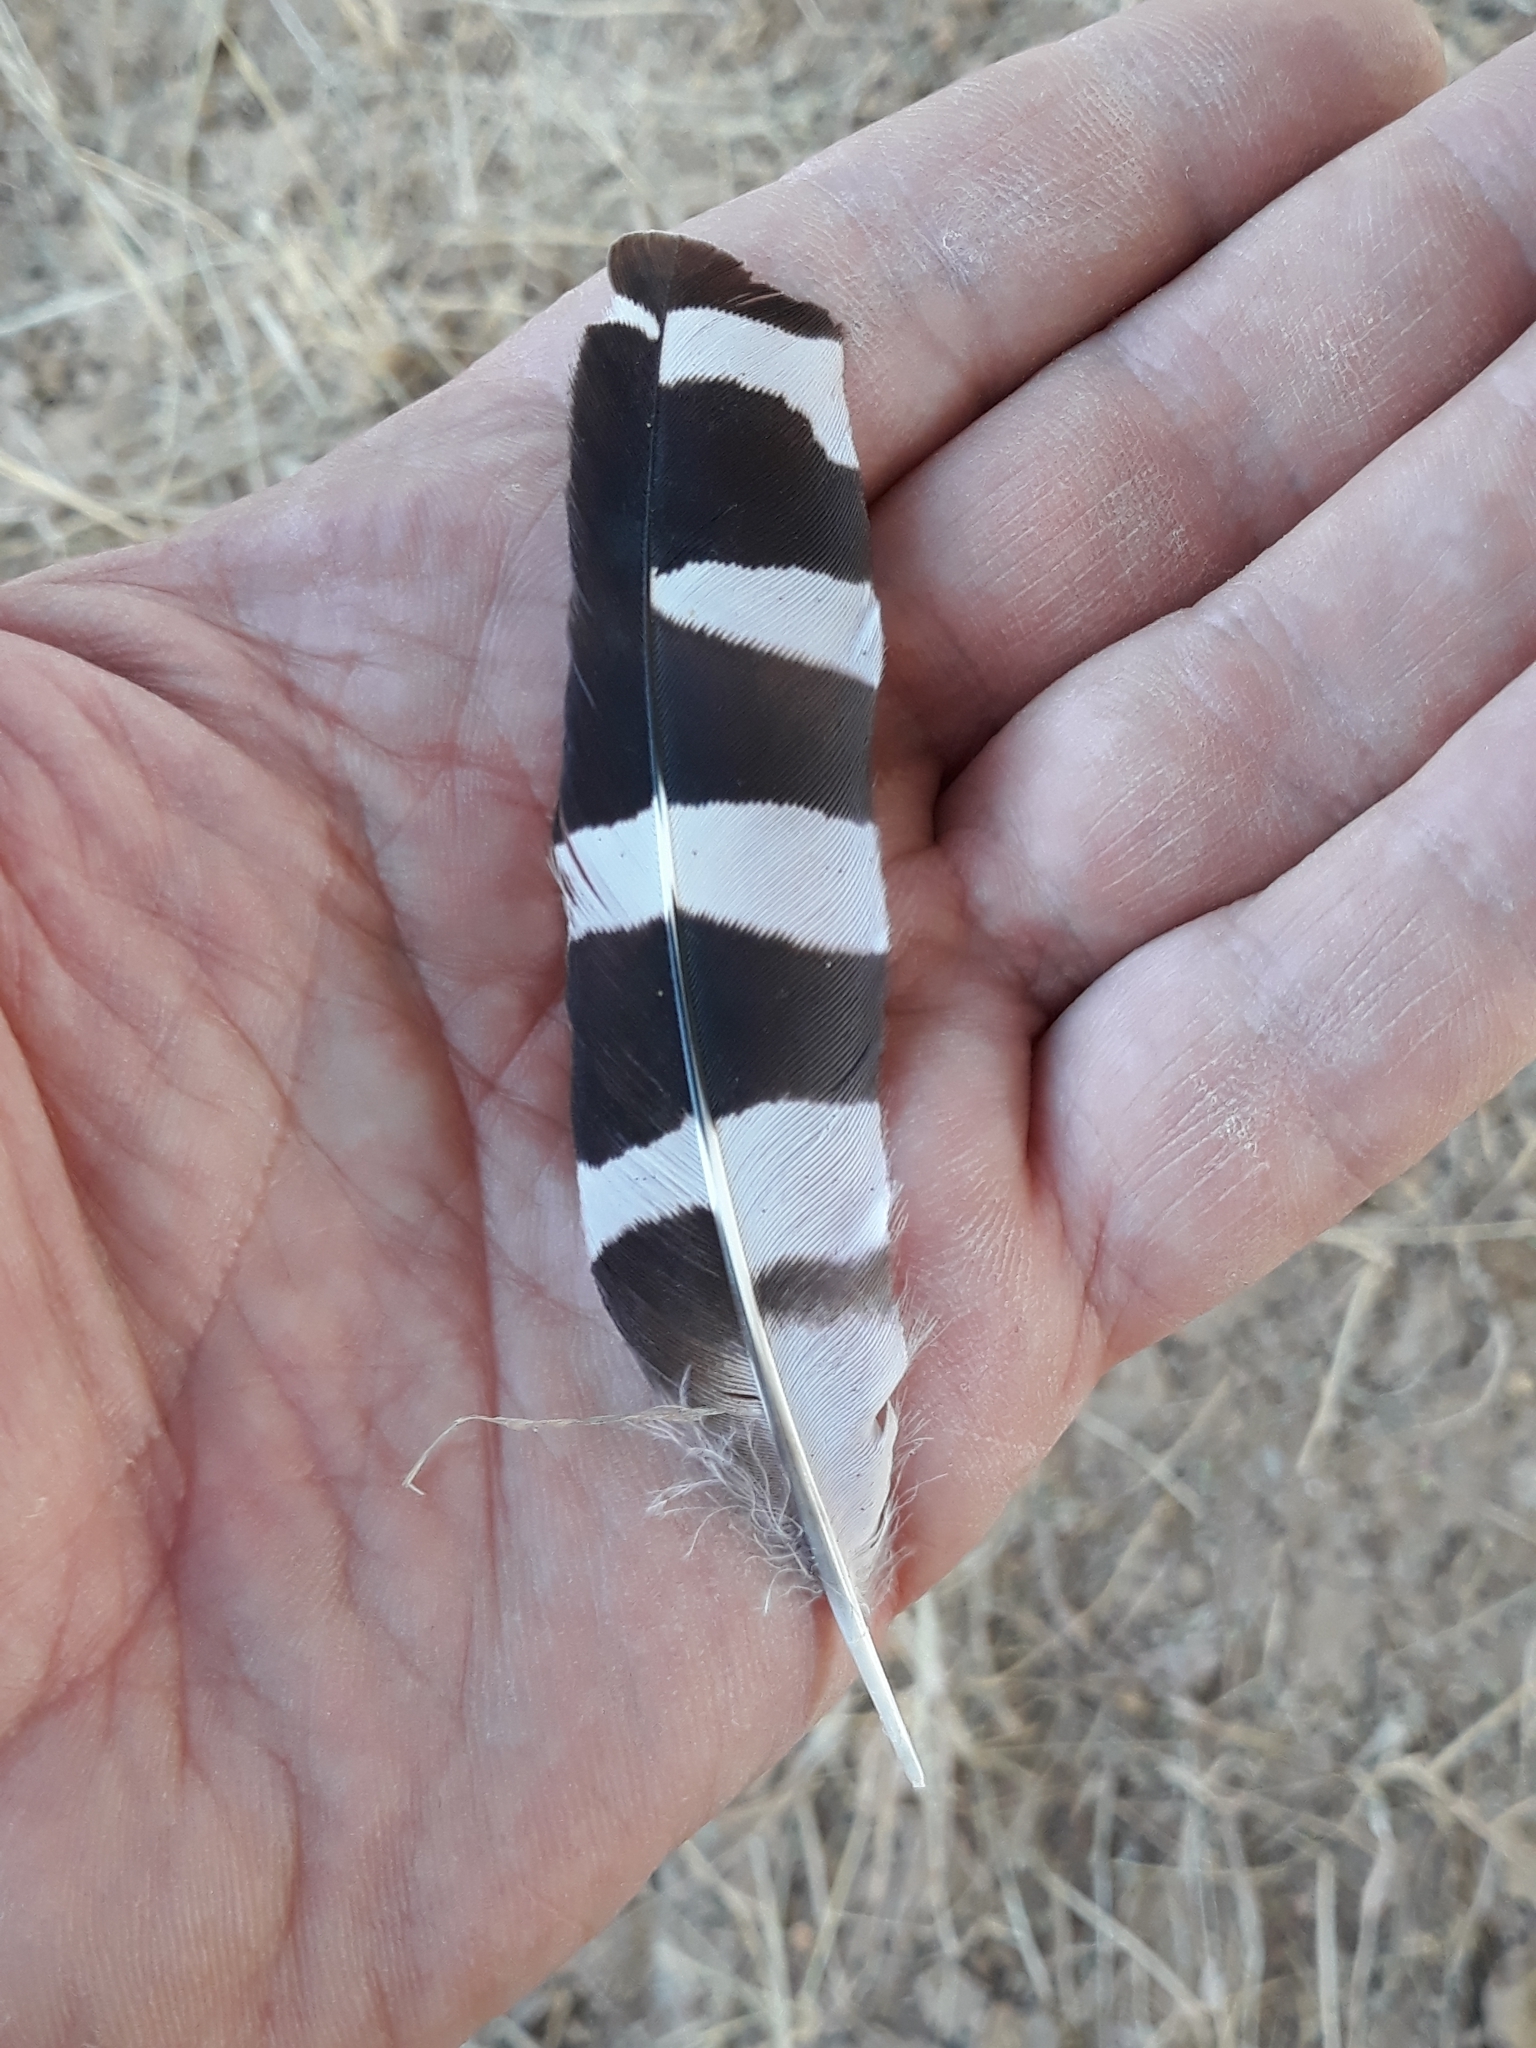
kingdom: Animalia
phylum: Chordata
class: Aves
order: Bucerotiformes
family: Upupidae
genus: Upupa
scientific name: Upupa epops
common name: Eurasian hoopoe
